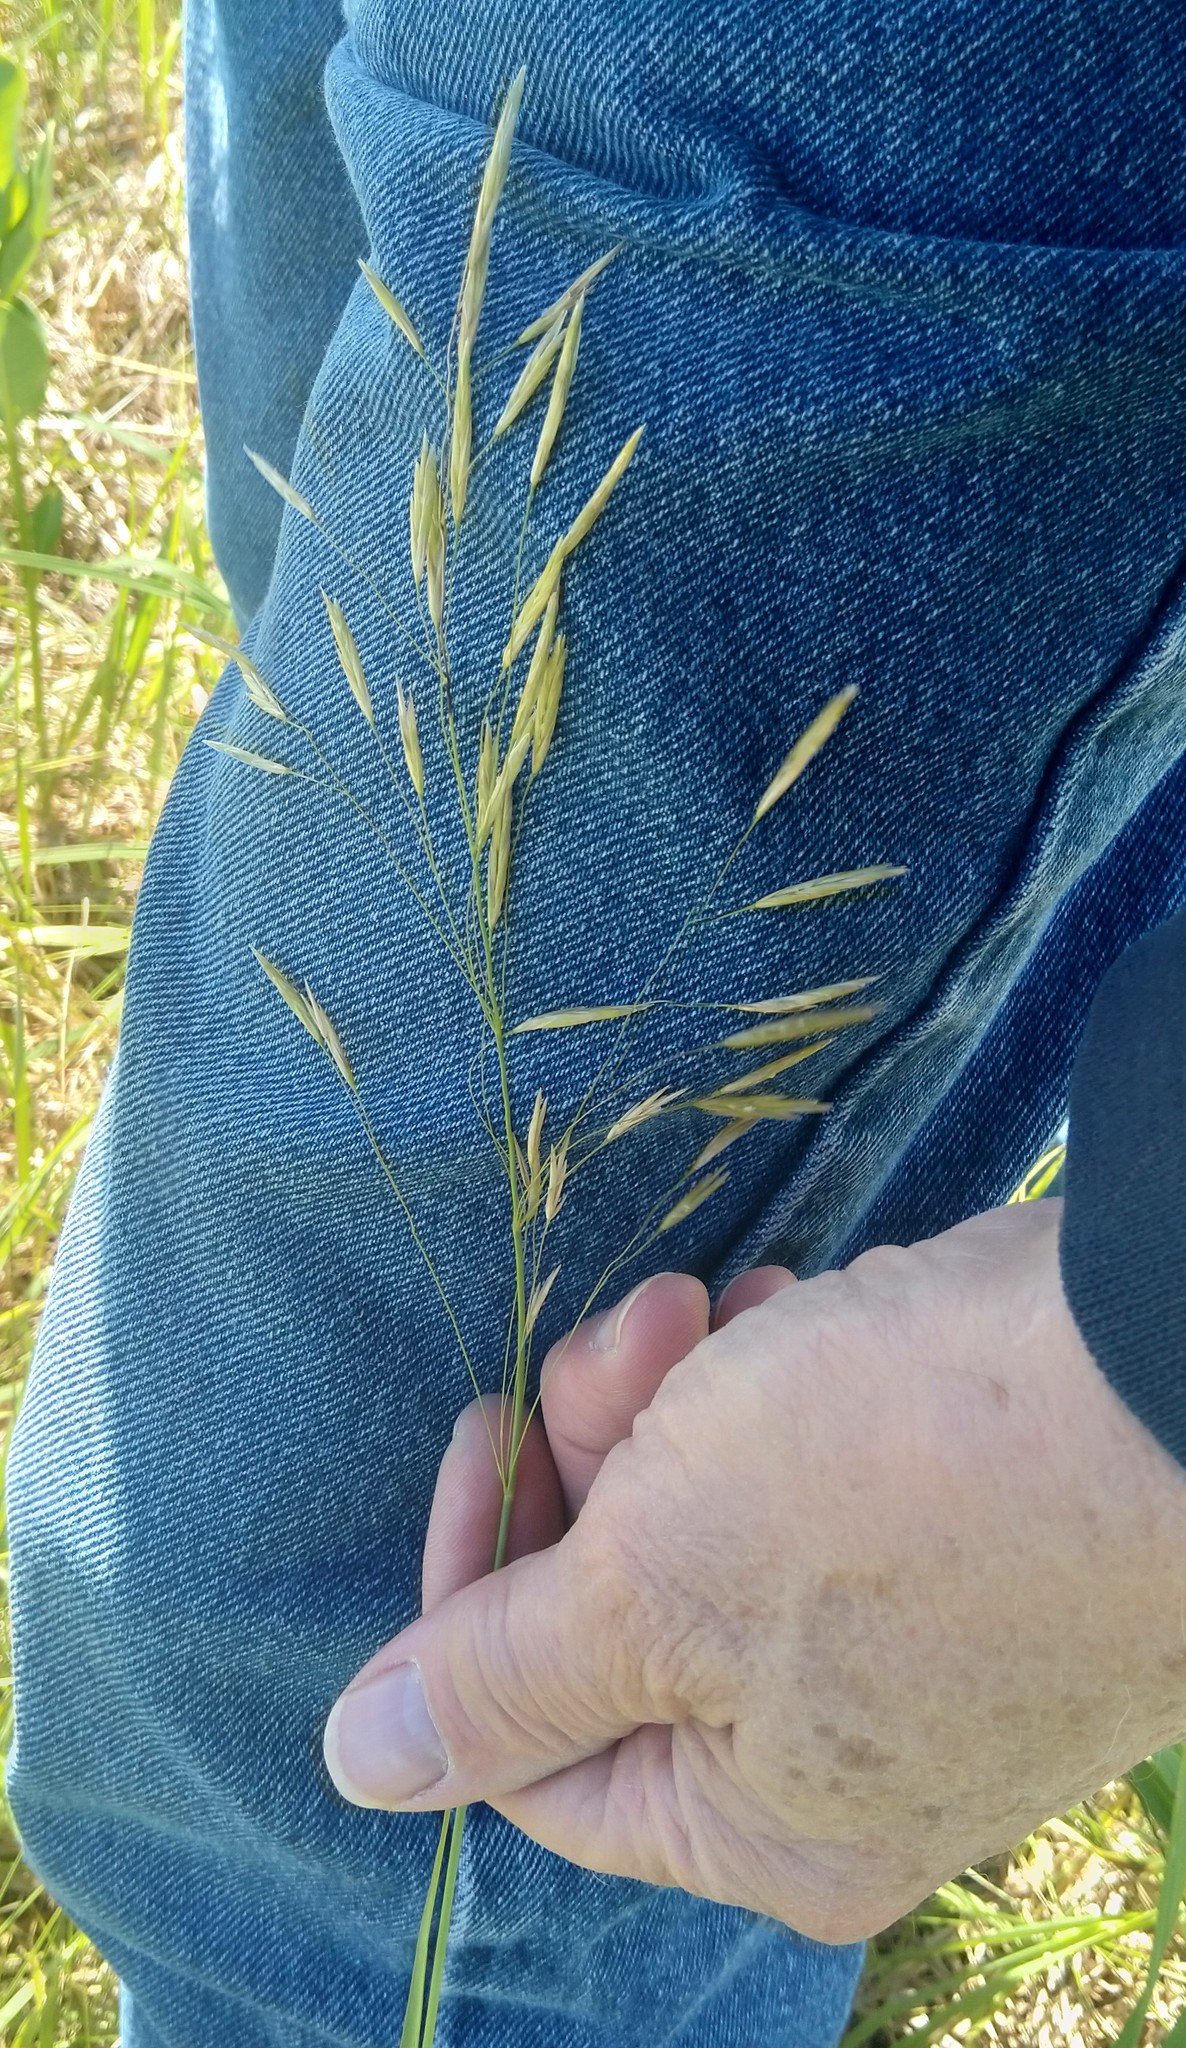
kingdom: Plantae
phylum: Tracheophyta
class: Liliopsida
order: Poales
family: Poaceae
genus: Bromus
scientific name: Bromus inermis
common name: Smooth brome
